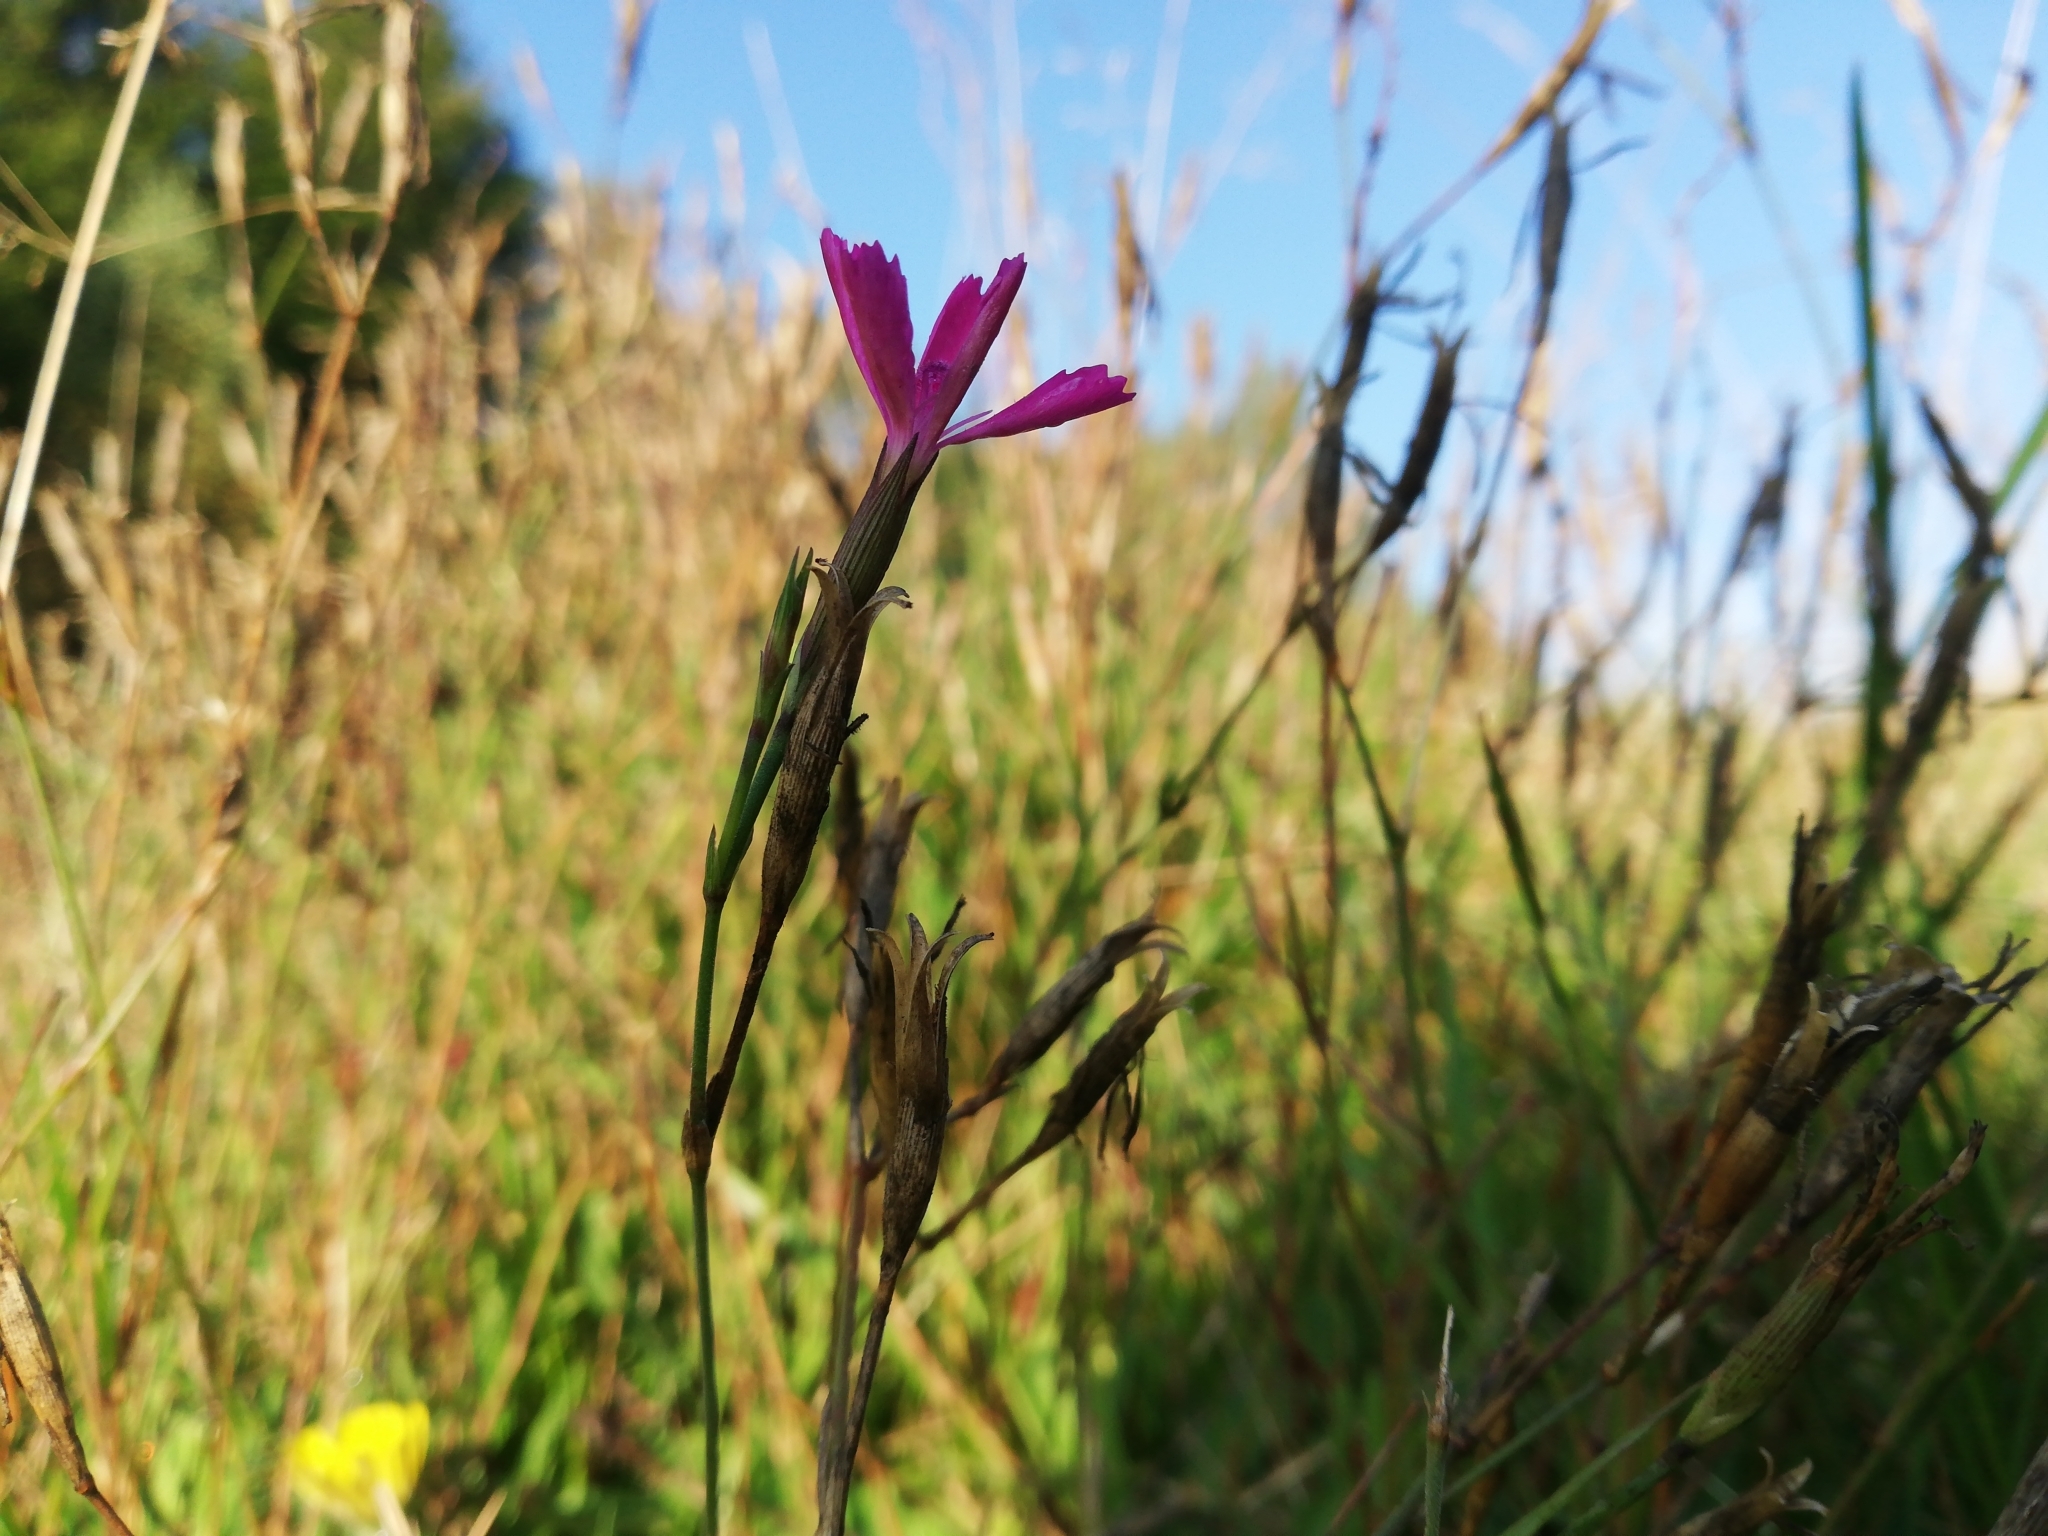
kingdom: Plantae
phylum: Tracheophyta
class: Magnoliopsida
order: Caryophyllales
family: Caryophyllaceae
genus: Dianthus
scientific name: Dianthus deltoides
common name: Maiden pink
